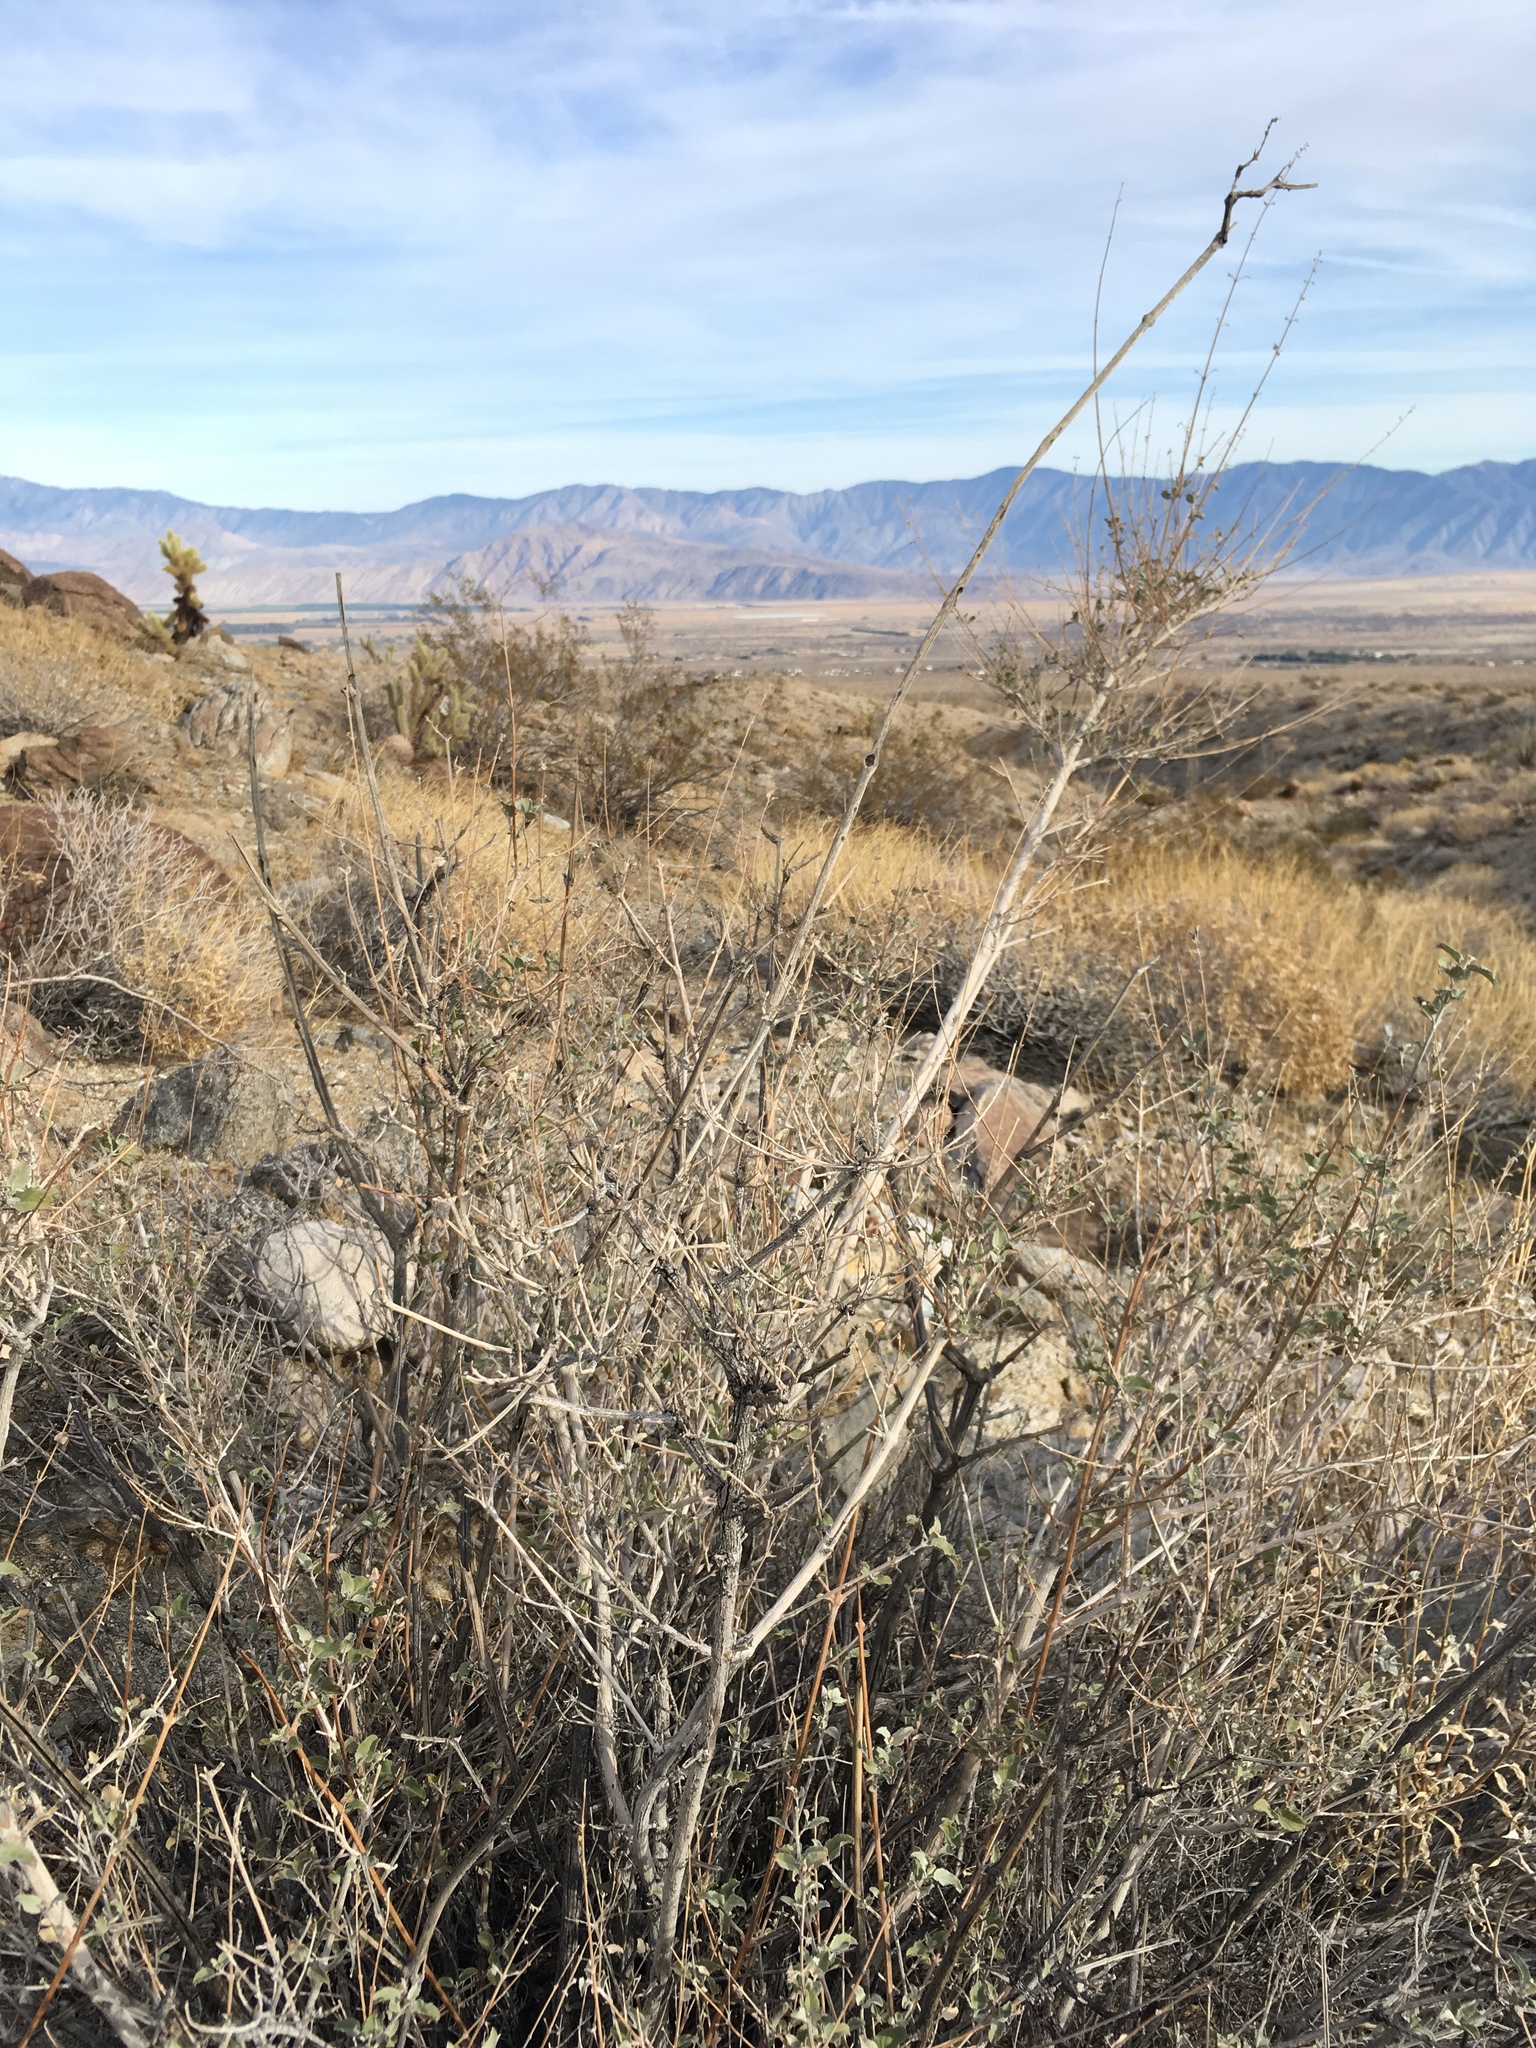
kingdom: Plantae
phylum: Tracheophyta
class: Magnoliopsida
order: Lamiales
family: Lamiaceae
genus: Condea
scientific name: Condea emoryi
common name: Chia
